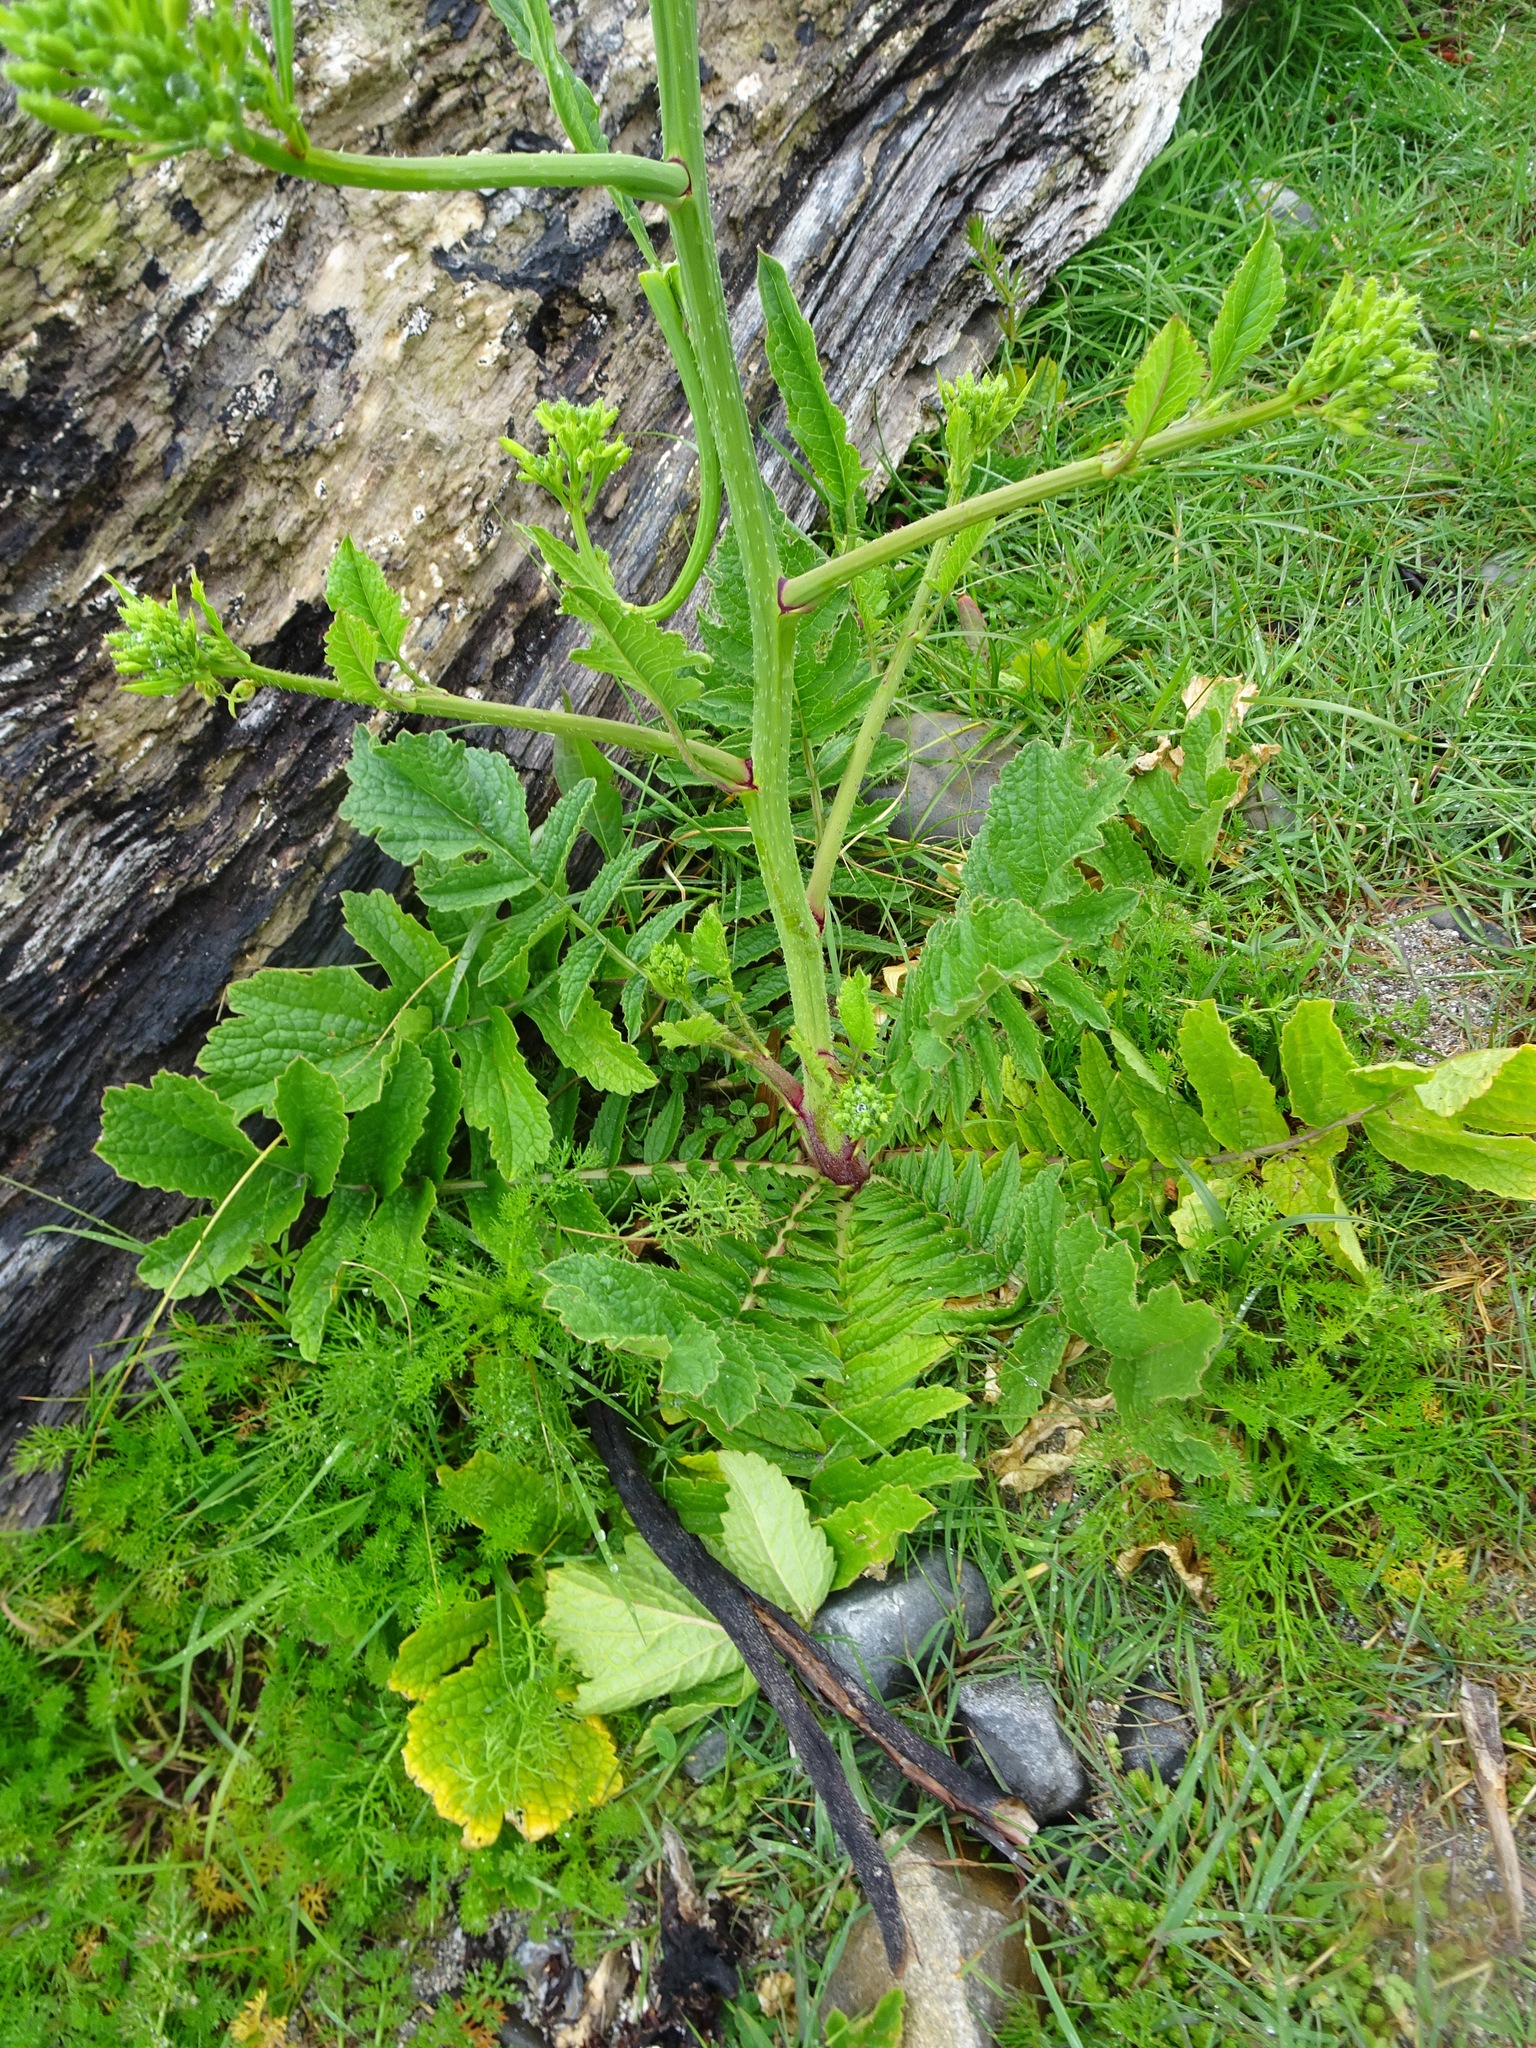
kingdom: Plantae
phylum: Tracheophyta
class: Magnoliopsida
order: Brassicales
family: Brassicaceae
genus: Raphanus
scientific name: Raphanus raphanistrum
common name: Wild radish
